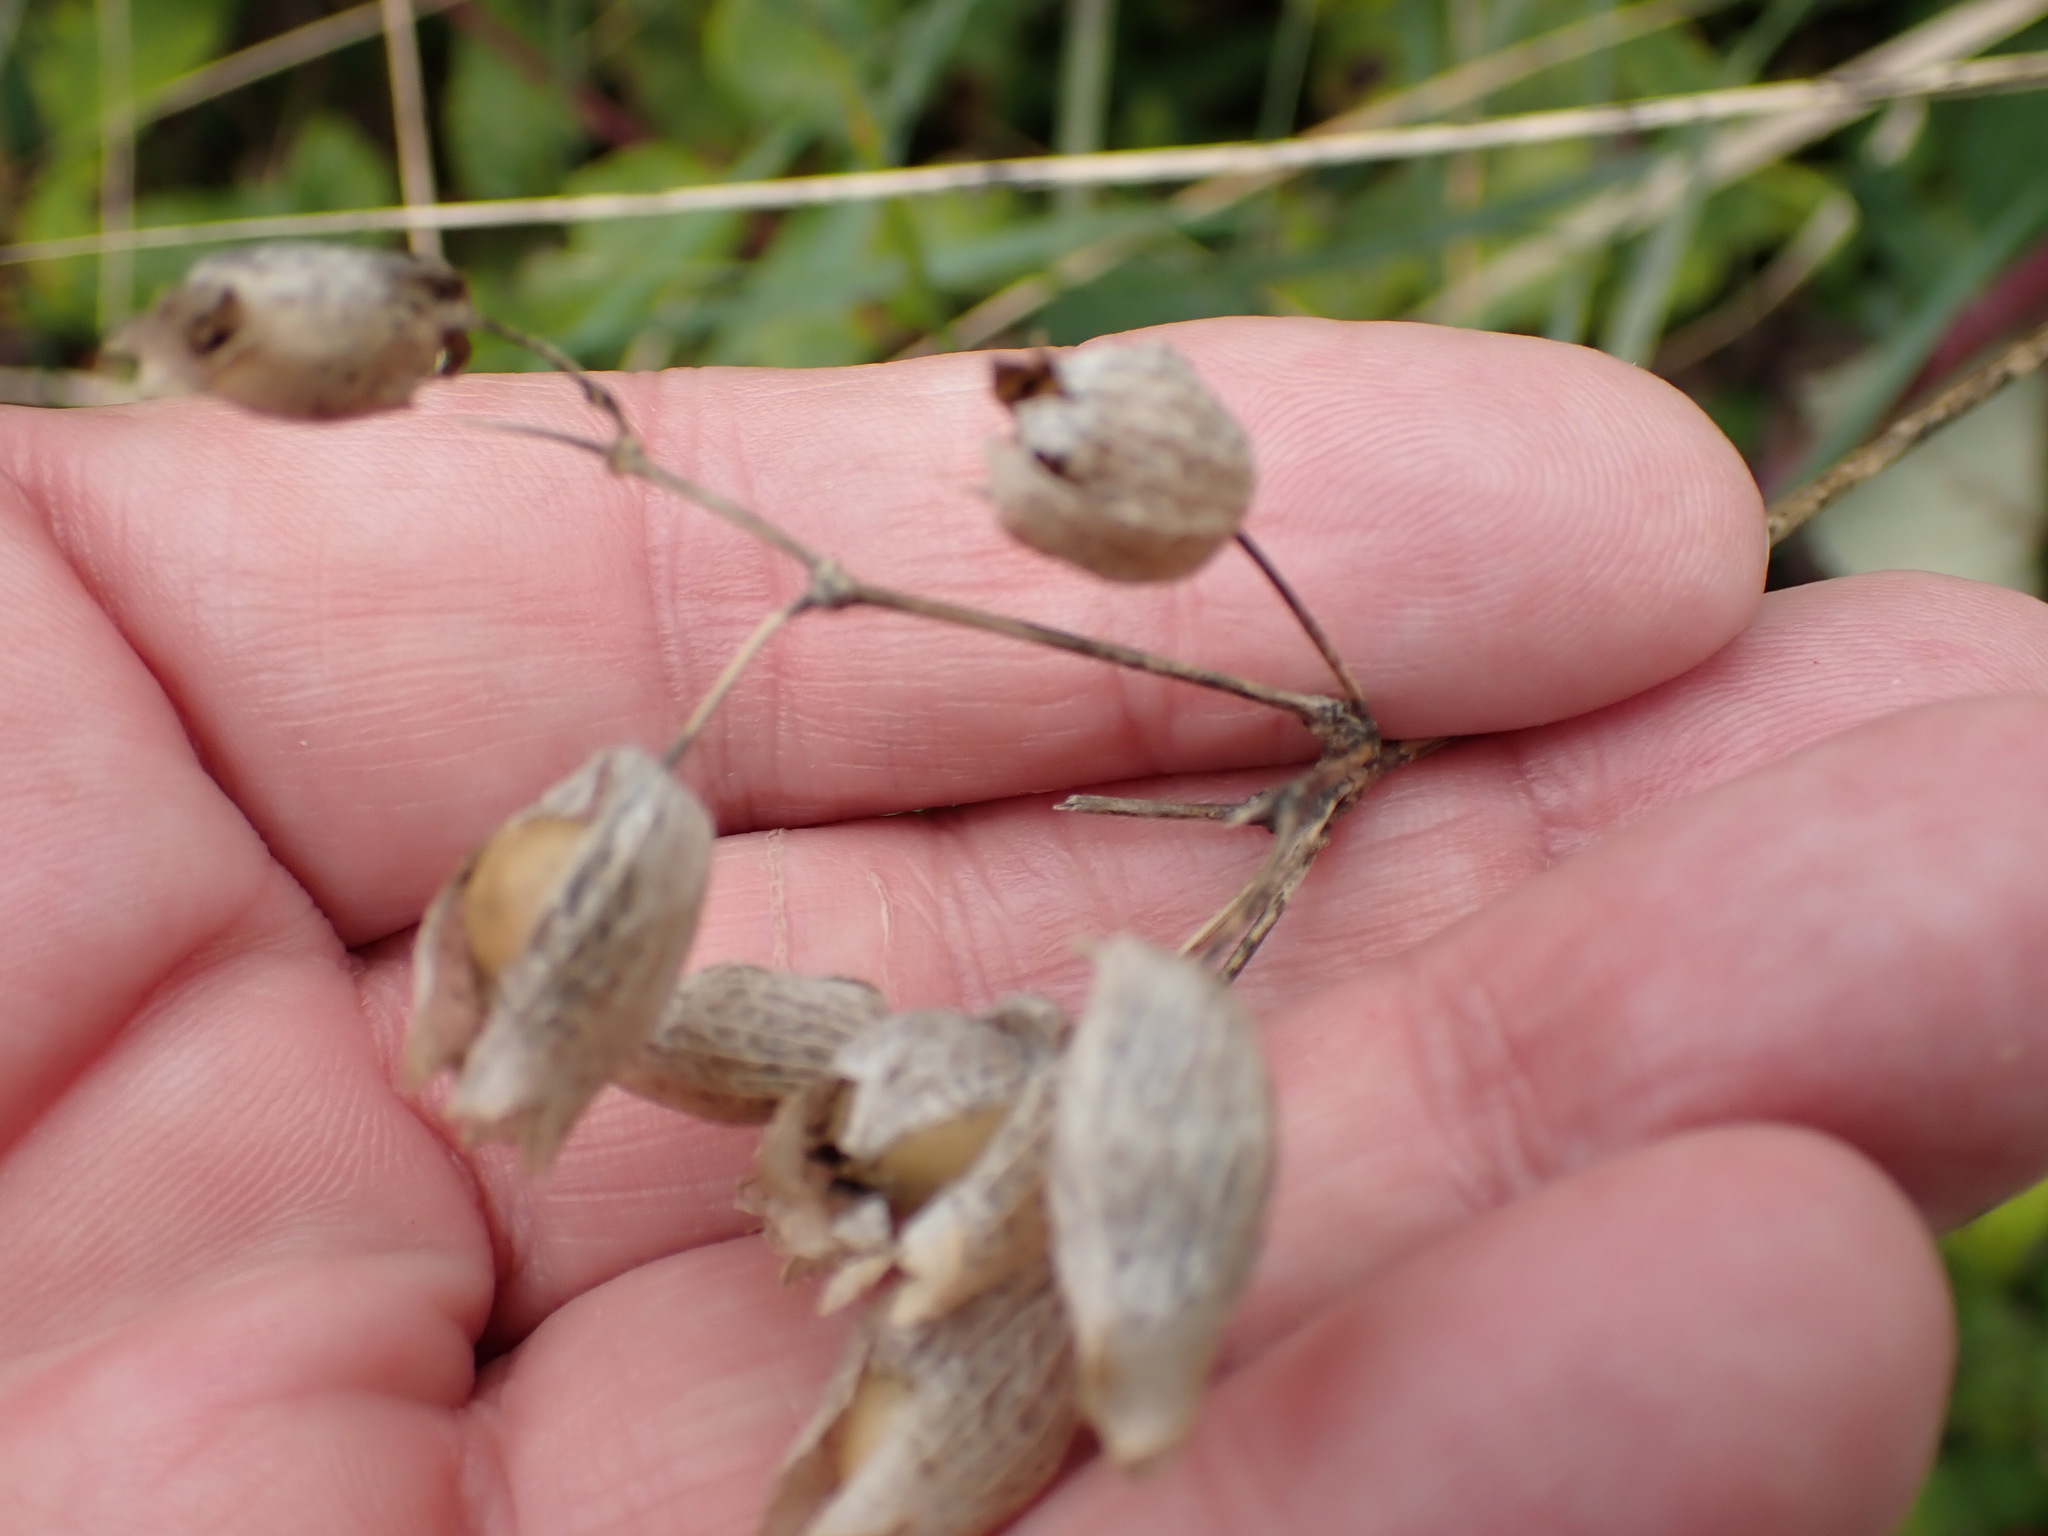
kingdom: Plantae
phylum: Tracheophyta
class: Magnoliopsida
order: Caryophyllales
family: Caryophyllaceae
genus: Silene
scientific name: Silene vulgaris
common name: Bladder campion
